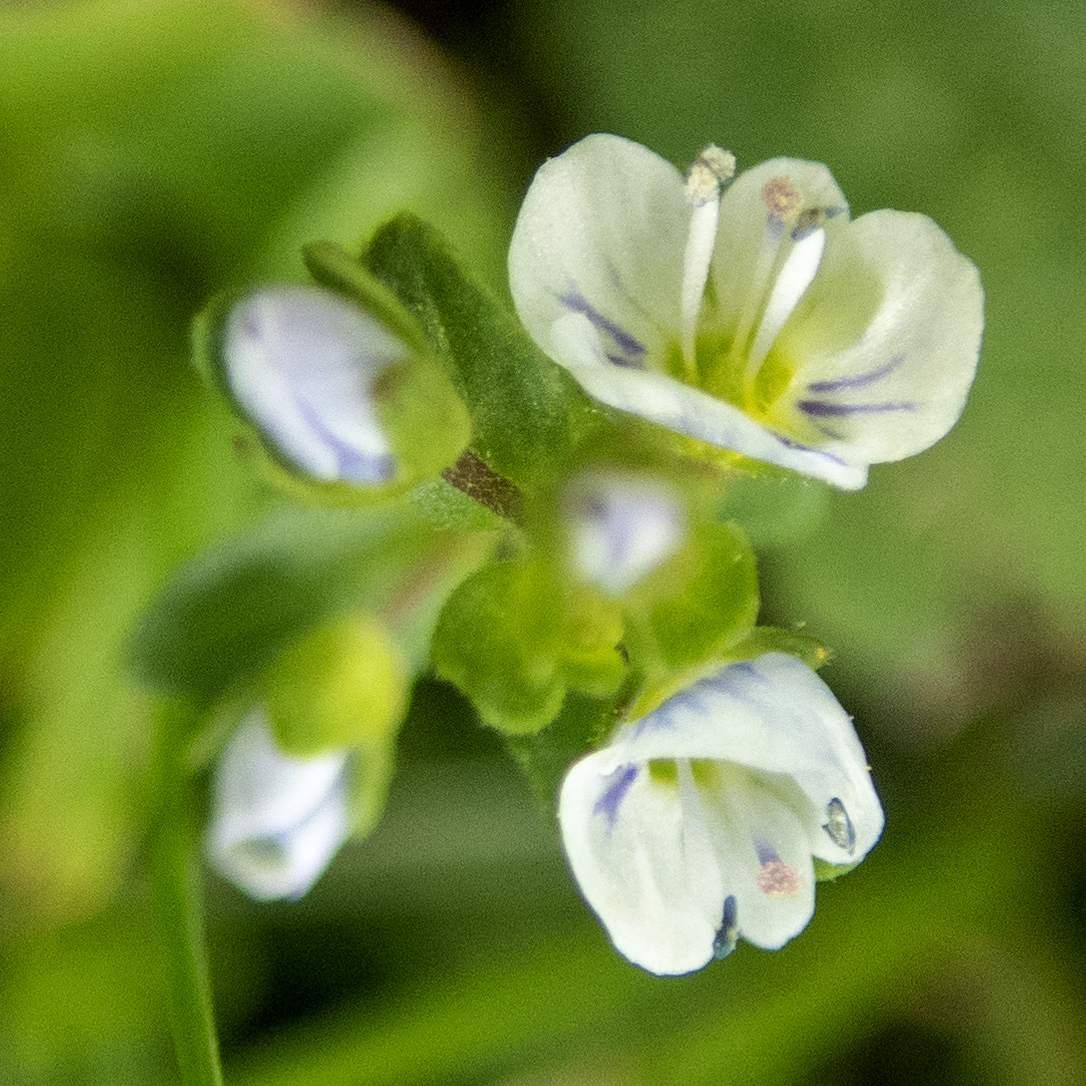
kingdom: Plantae
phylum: Tracheophyta
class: Magnoliopsida
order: Lamiales
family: Plantaginaceae
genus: Veronica
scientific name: Veronica serpyllifolia
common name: Thyme-leaved speedwell
